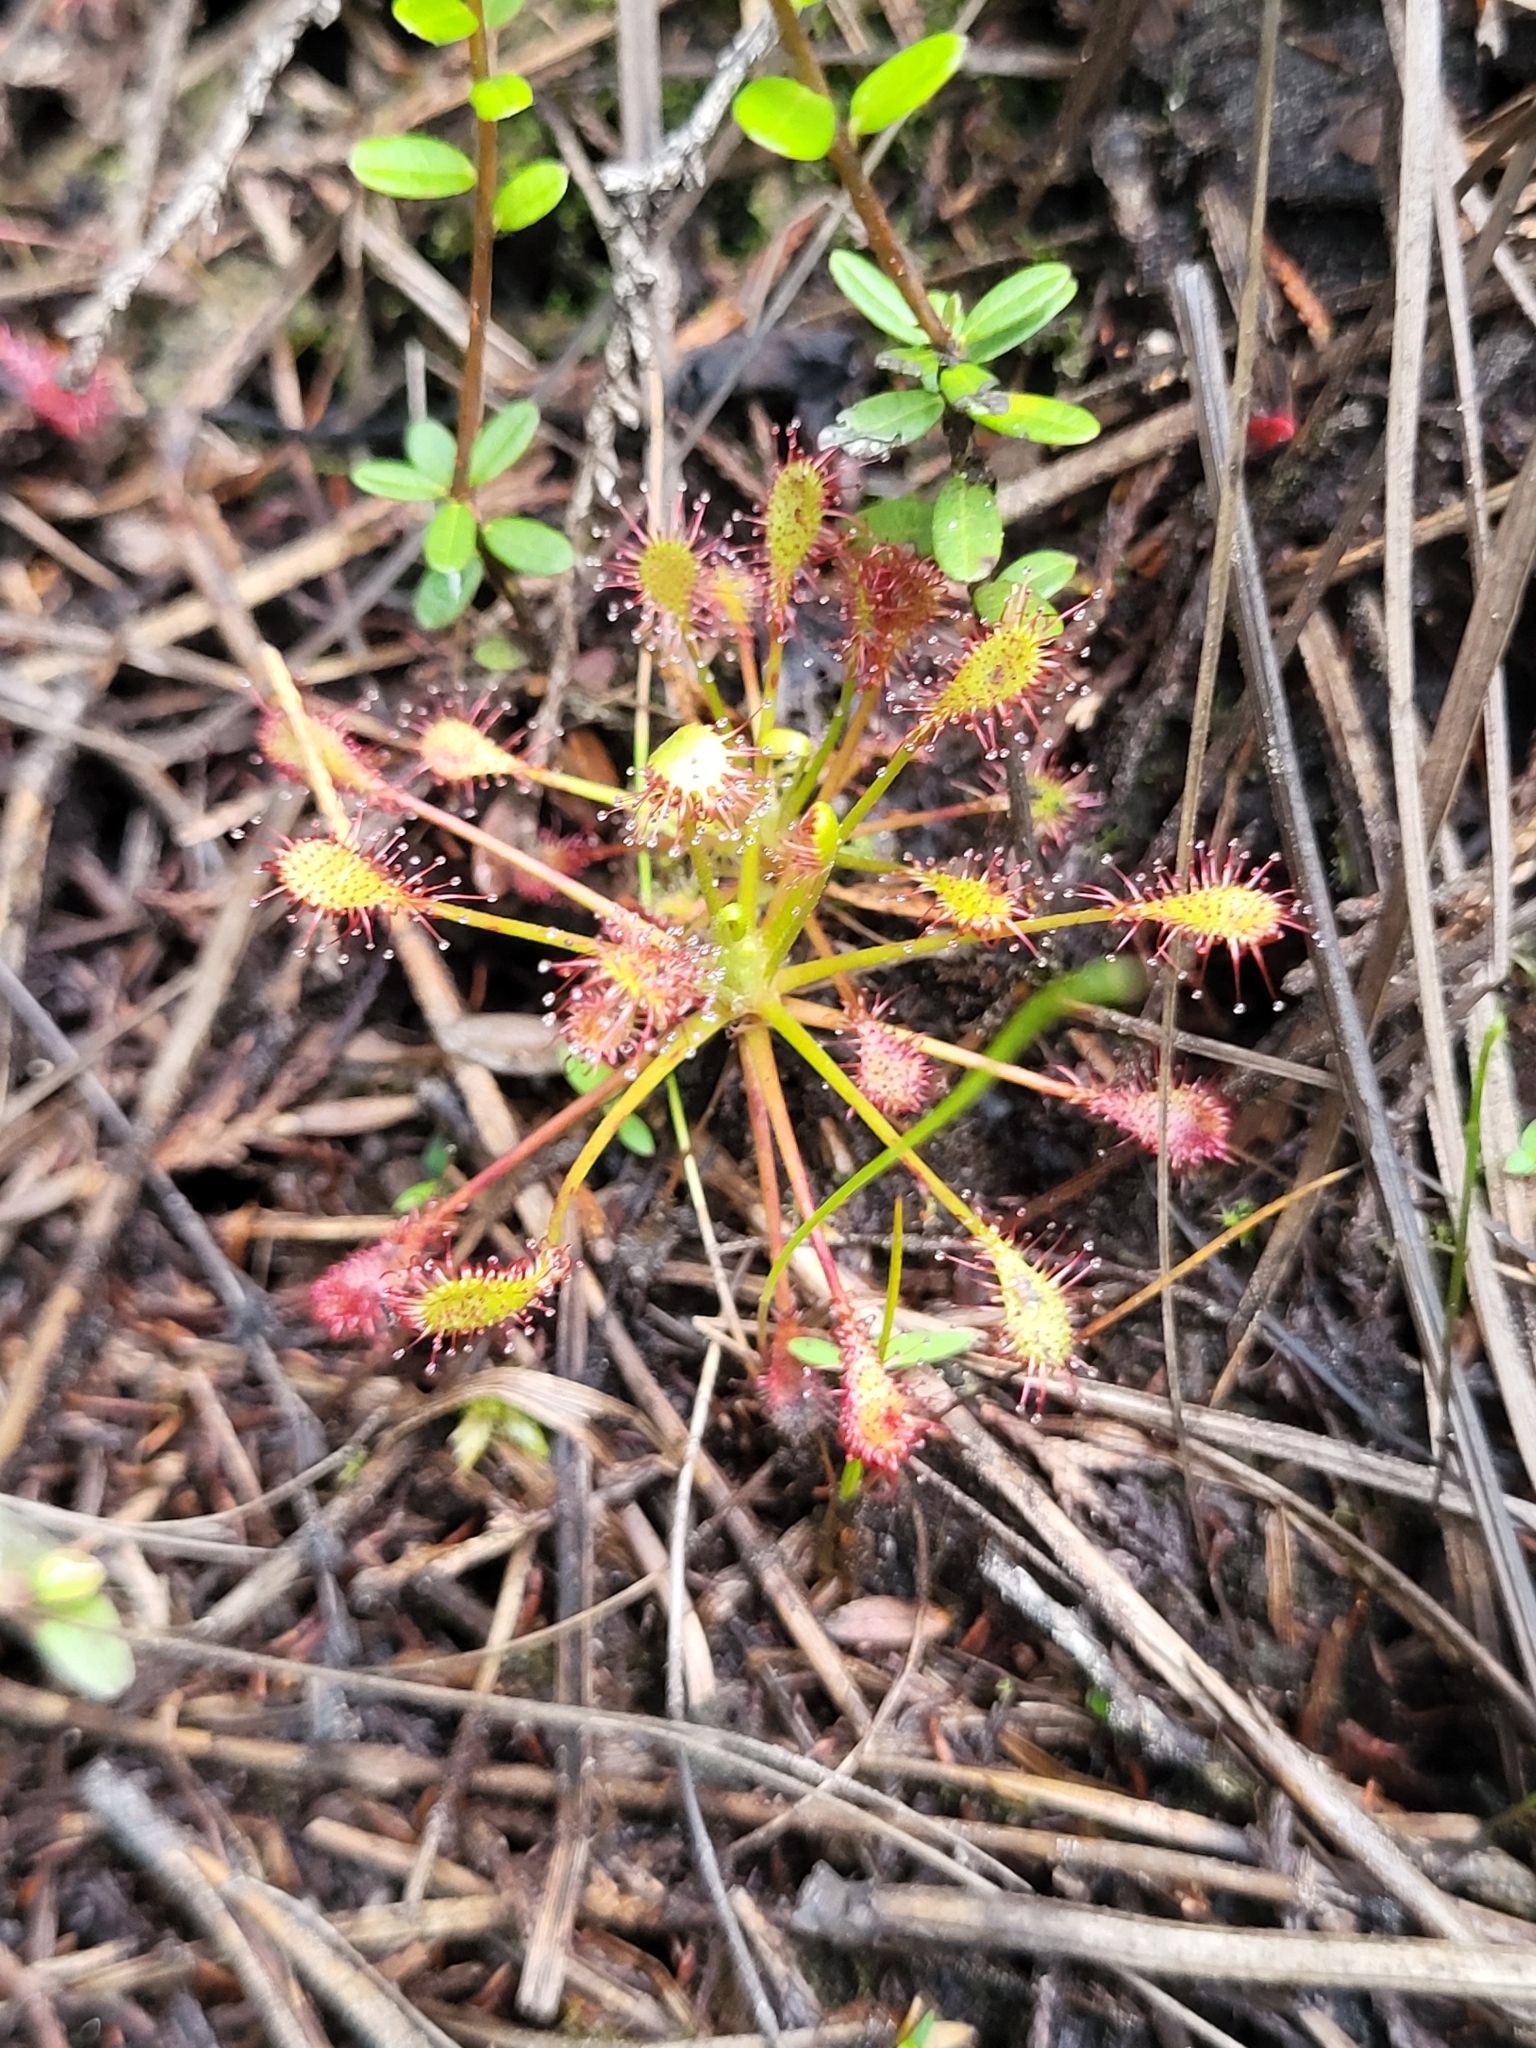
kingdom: Plantae
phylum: Tracheophyta
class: Magnoliopsida
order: Caryophyllales
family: Droseraceae
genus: Drosera
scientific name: Drosera intermedia
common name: Oblong-leaved sundew
